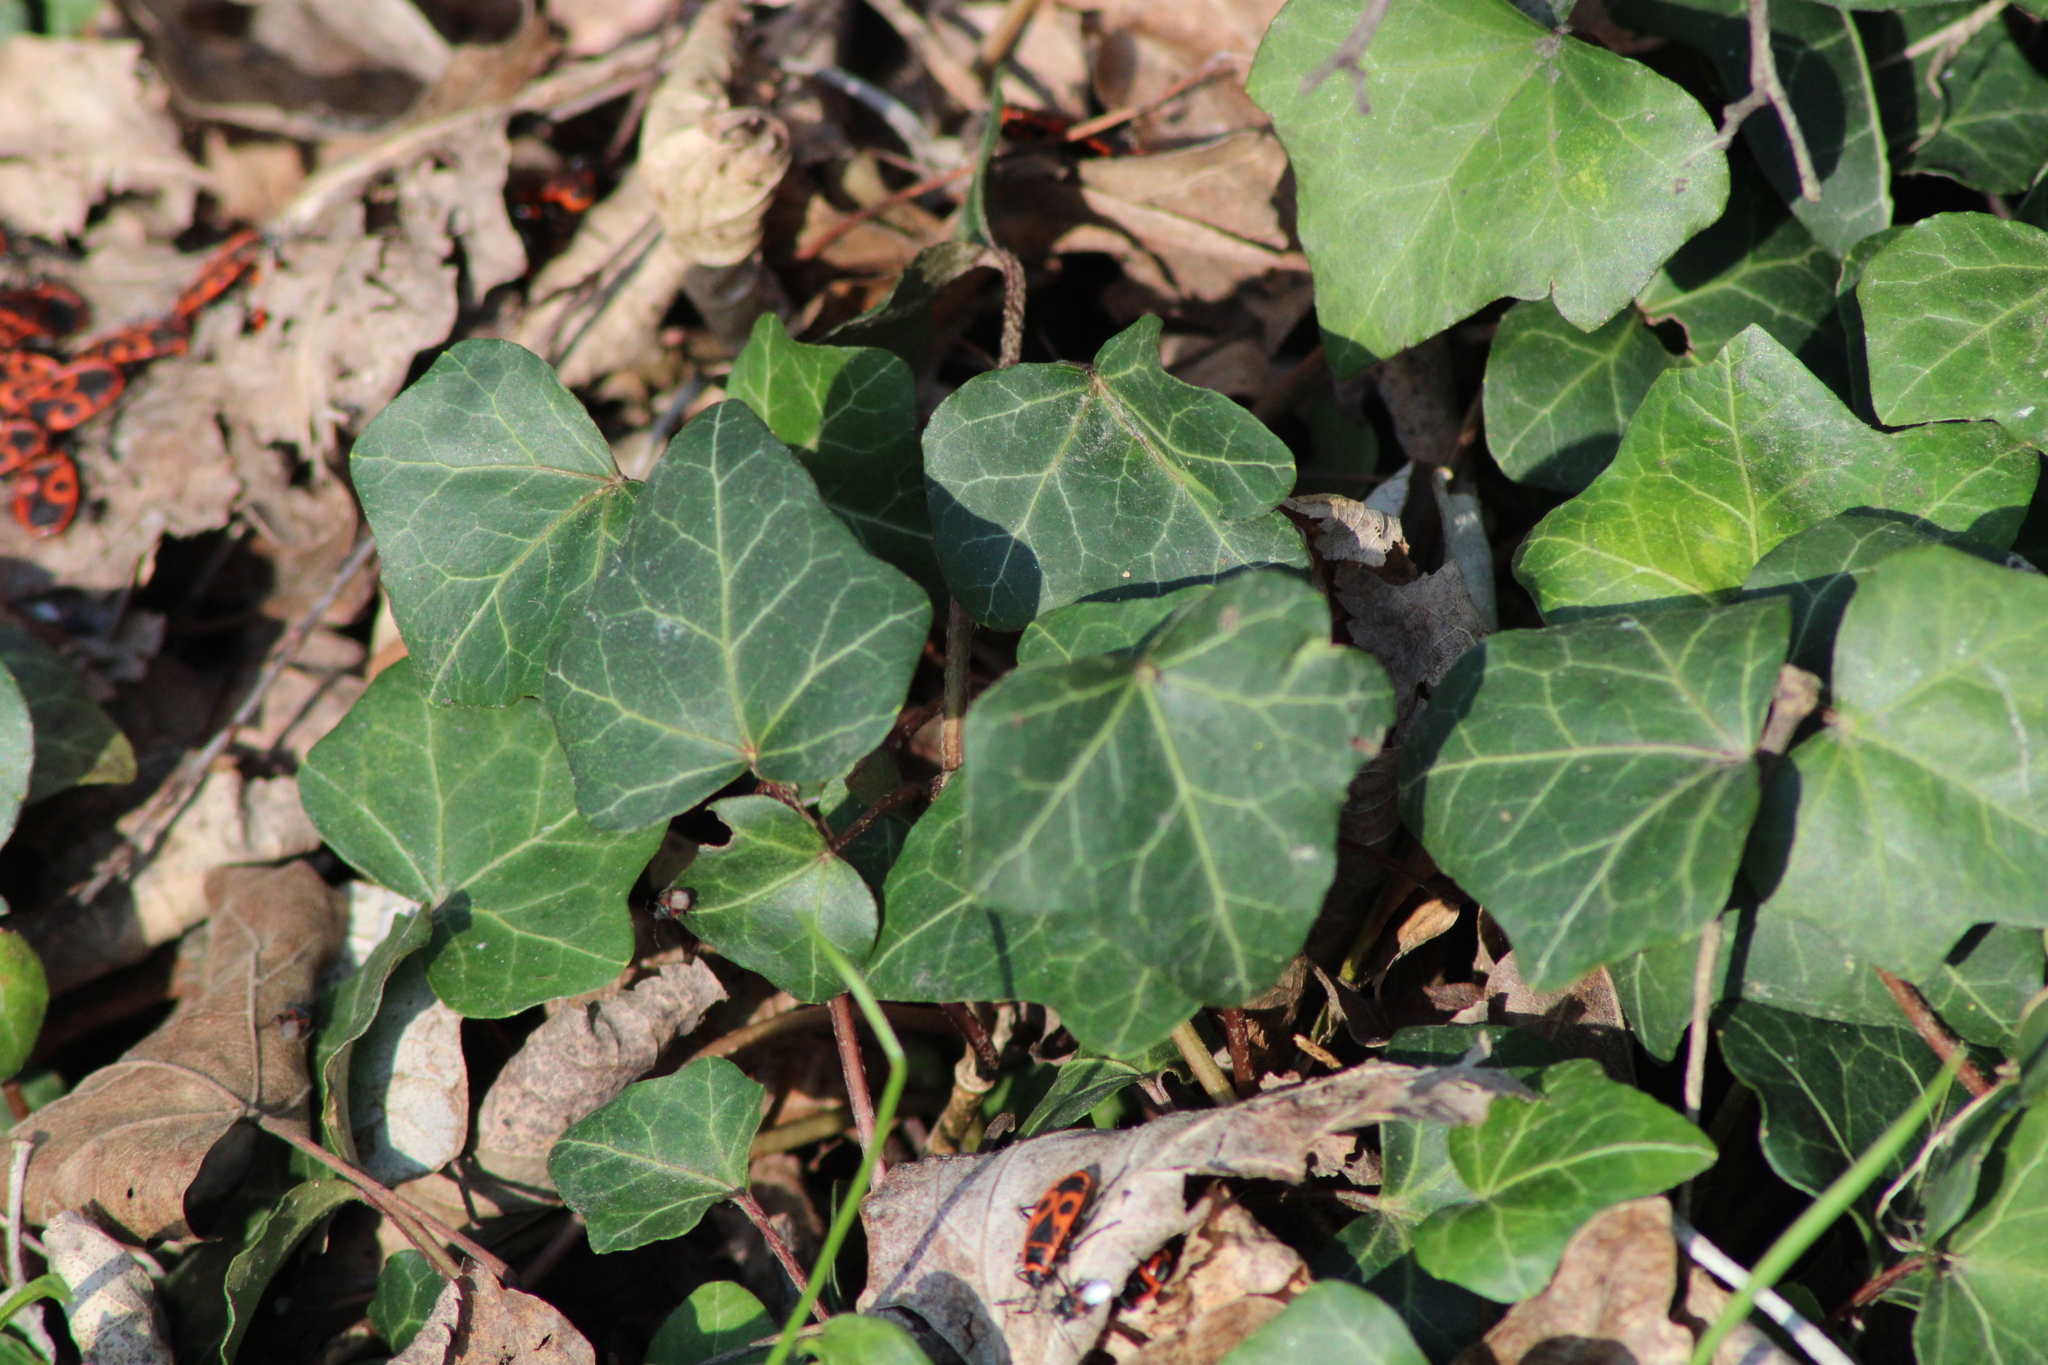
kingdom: Plantae
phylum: Tracheophyta
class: Magnoliopsida
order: Apiales
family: Araliaceae
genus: Hedera
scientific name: Hedera helix
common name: Ivy
